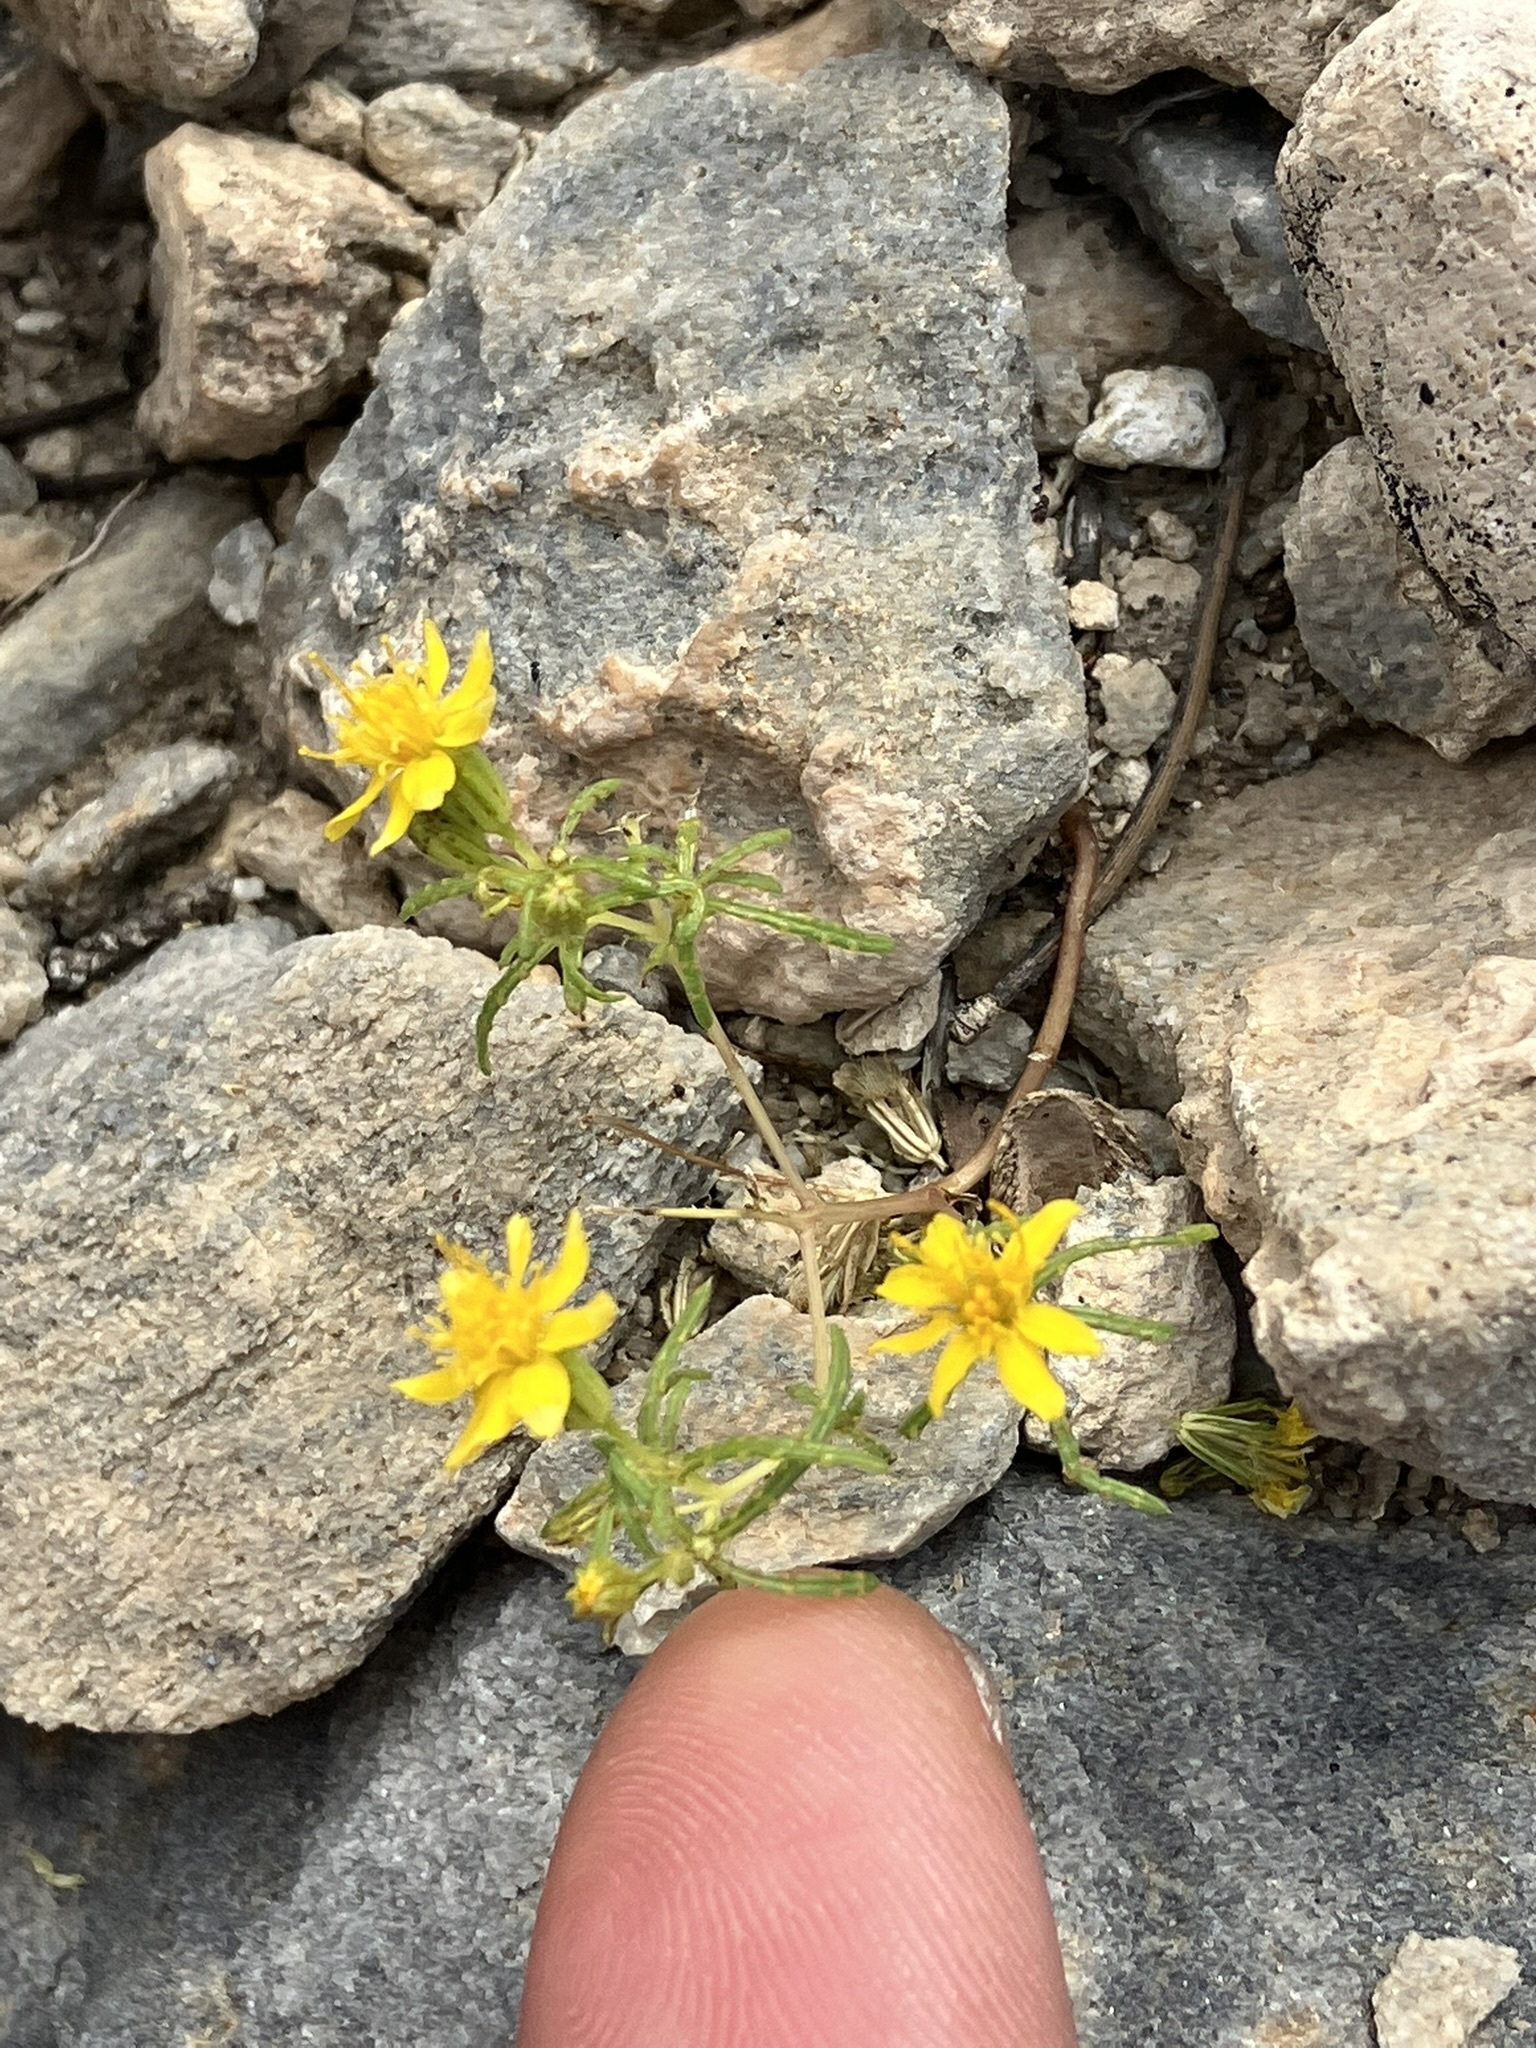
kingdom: Plantae
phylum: Tracheophyta
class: Magnoliopsida
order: Asterales
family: Asteraceae
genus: Pectis
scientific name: Pectis papposa
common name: Many-bristle chinchweed
